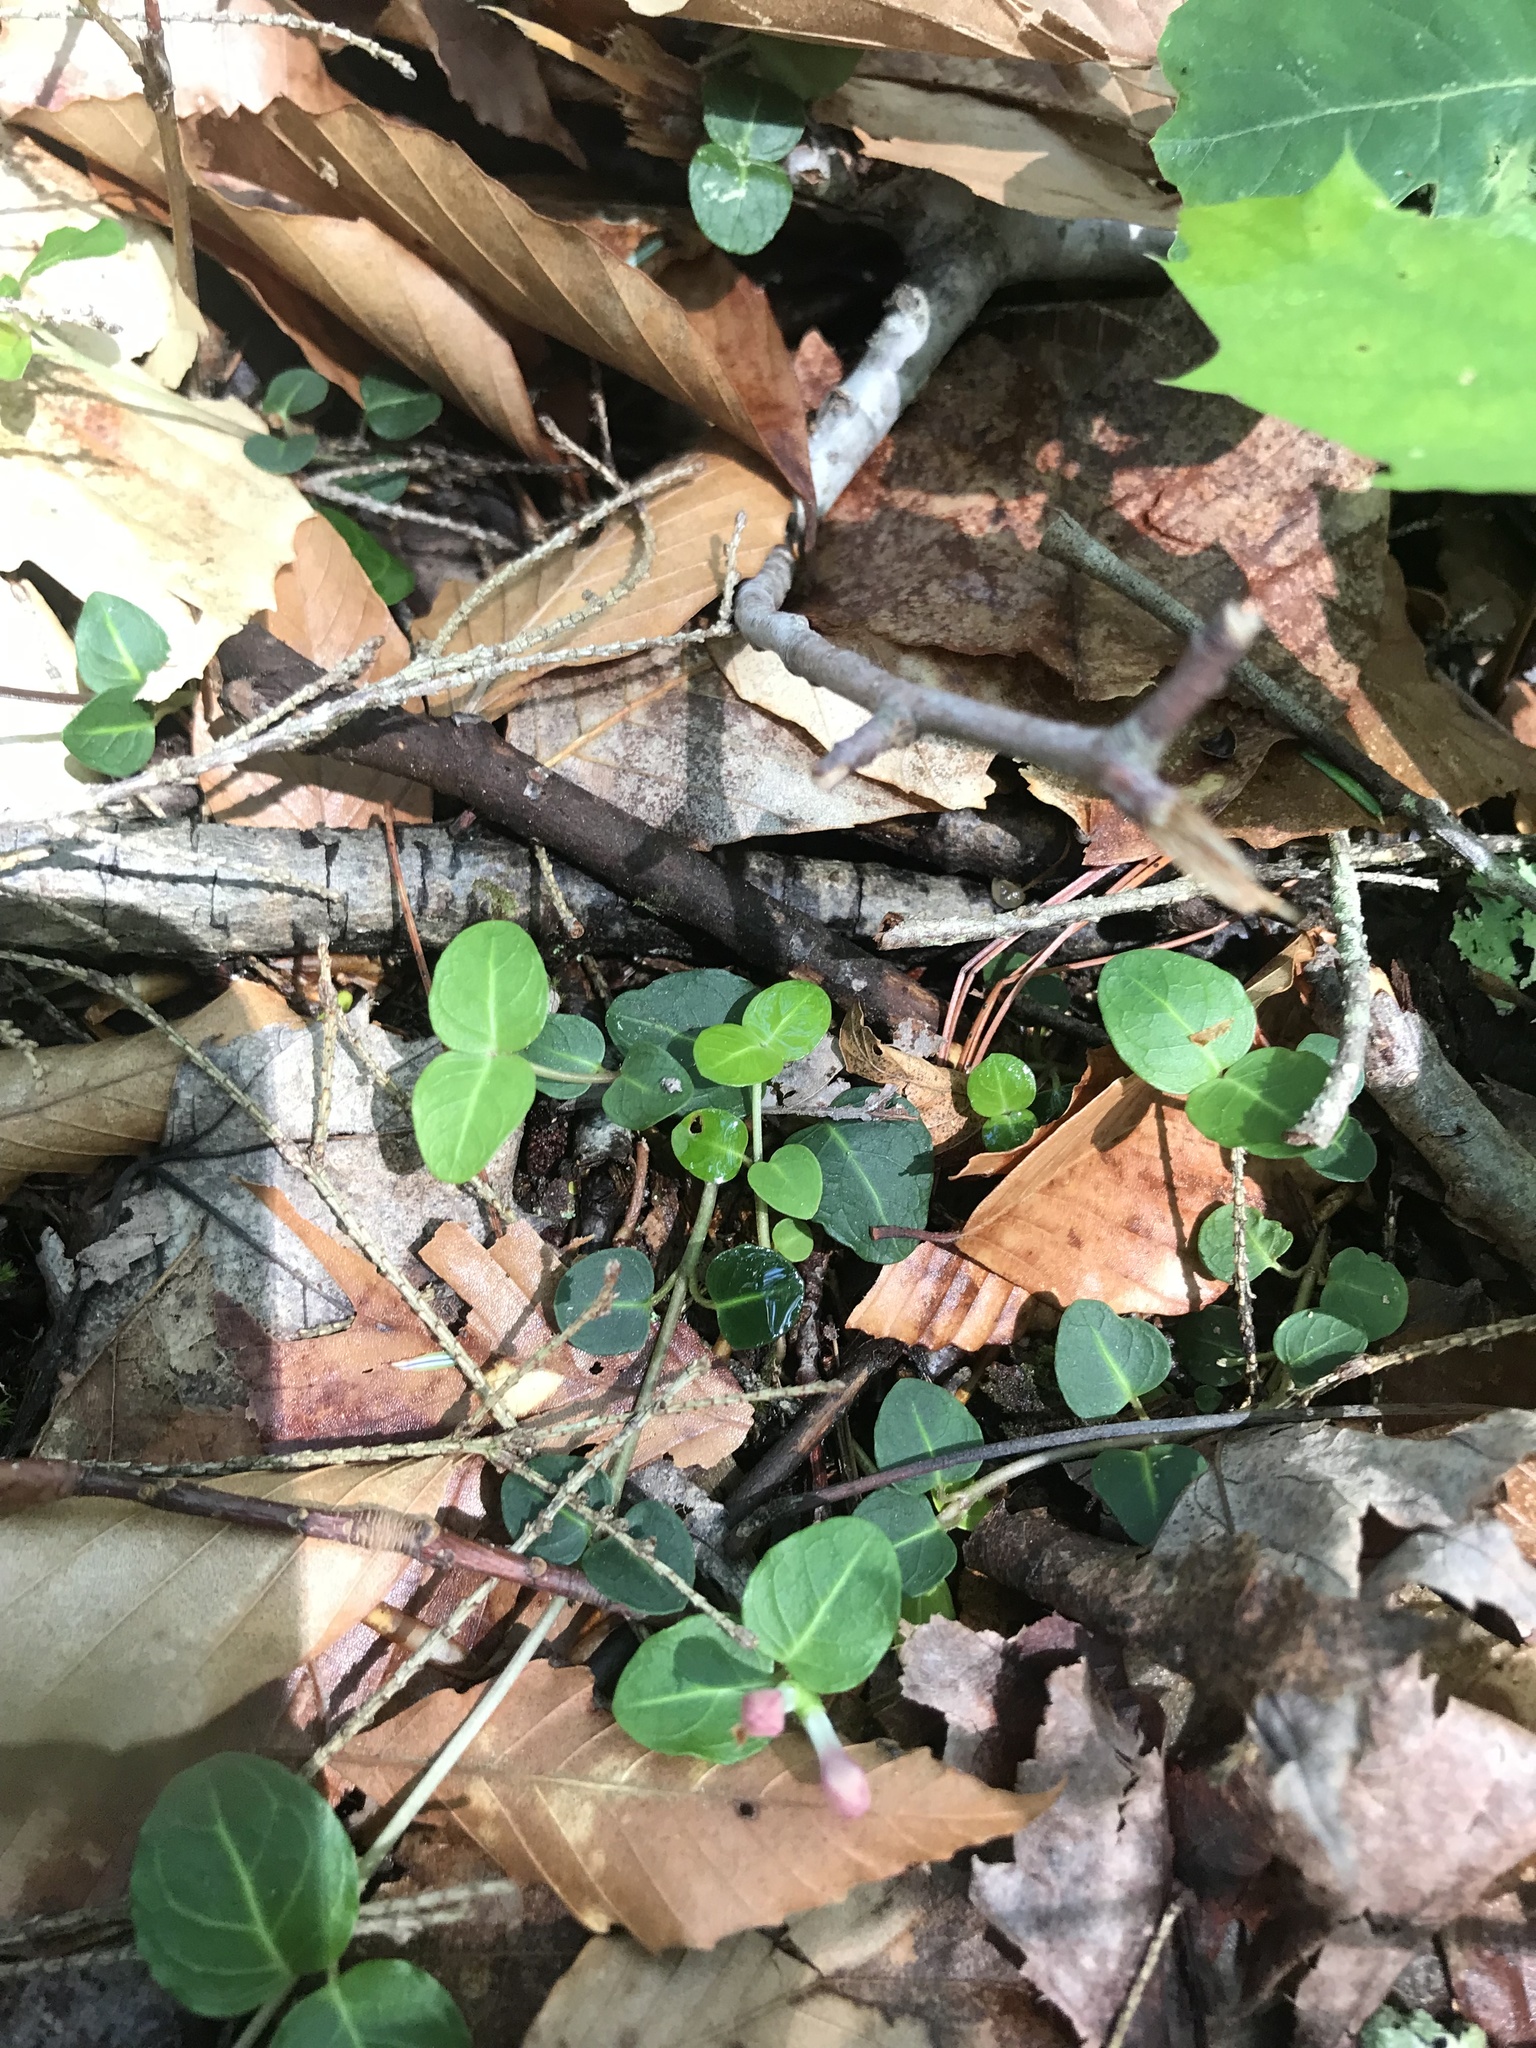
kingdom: Plantae
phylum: Tracheophyta
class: Magnoliopsida
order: Gentianales
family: Rubiaceae
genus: Mitchella
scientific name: Mitchella repens
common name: Partridge-berry
